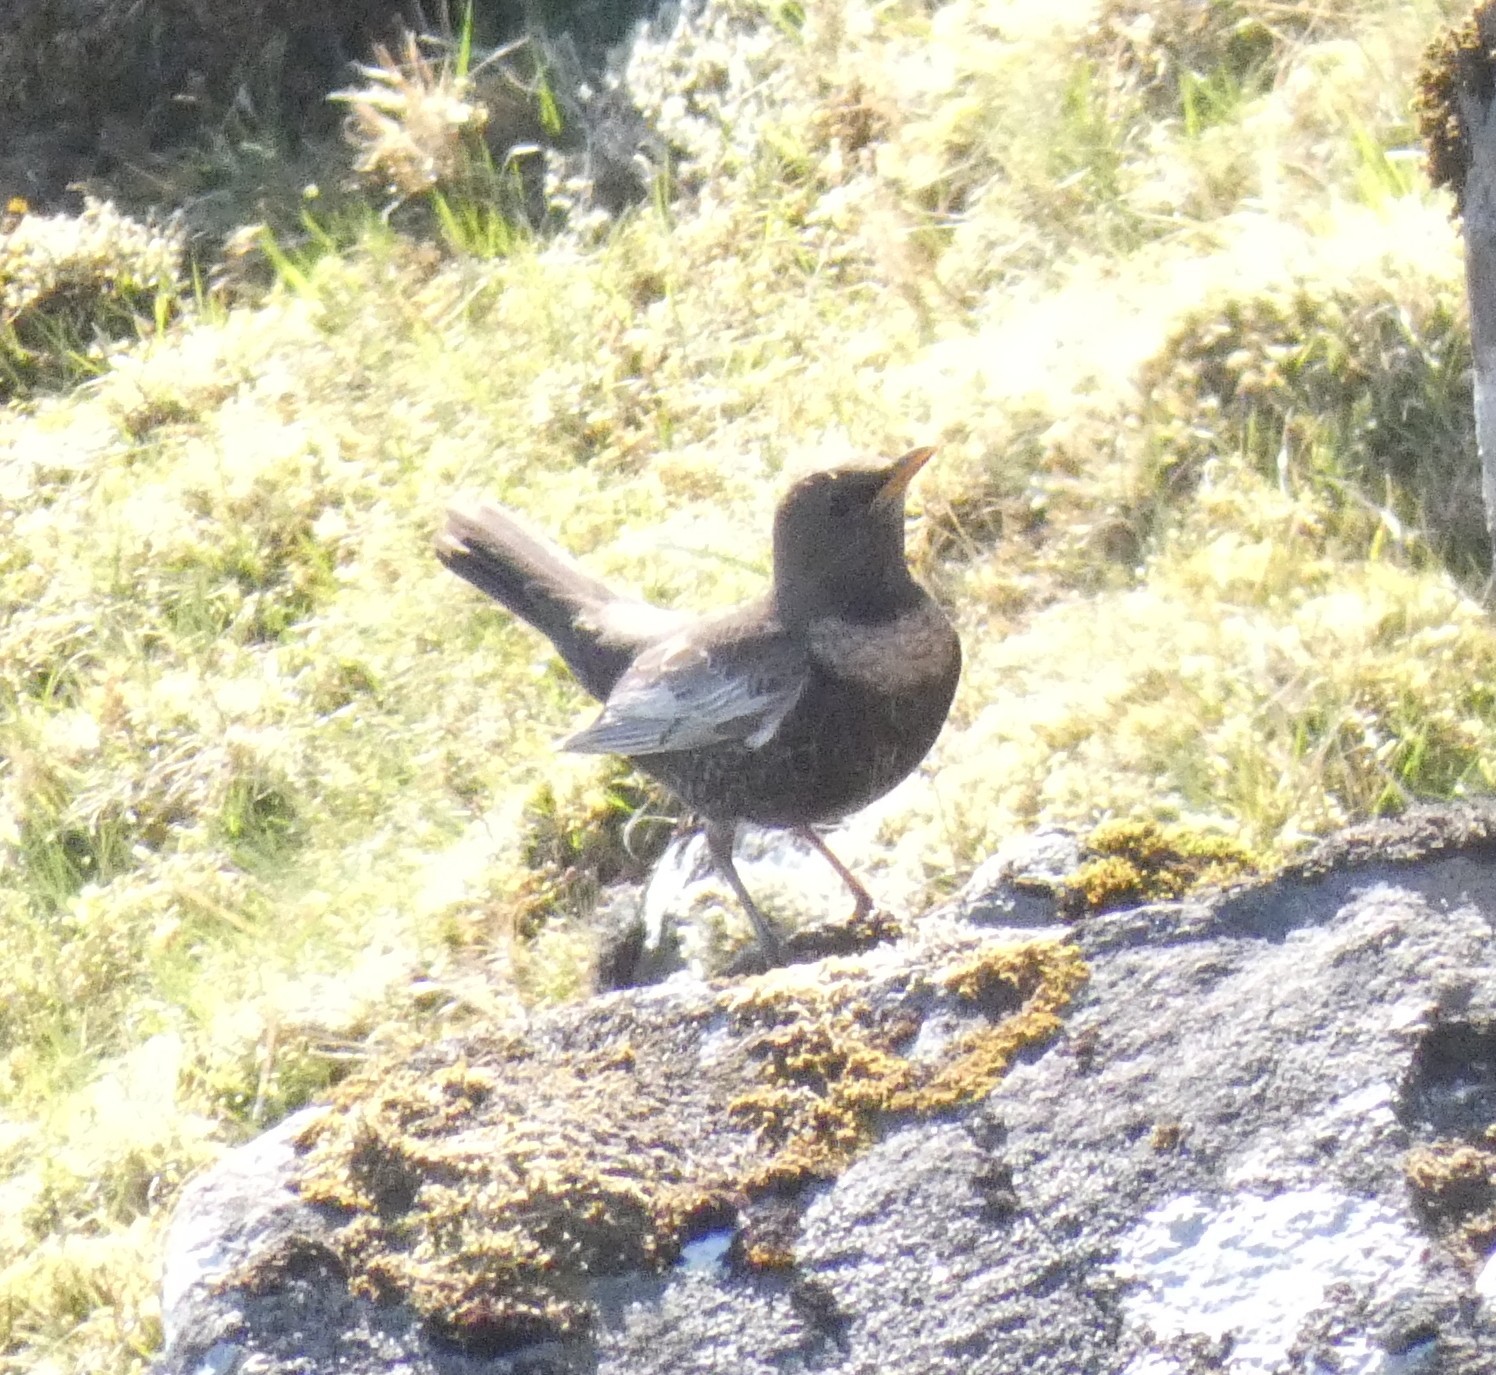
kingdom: Animalia
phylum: Chordata
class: Aves
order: Passeriformes
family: Turdidae
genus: Turdus
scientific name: Turdus torquatus
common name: Ring ouzel
